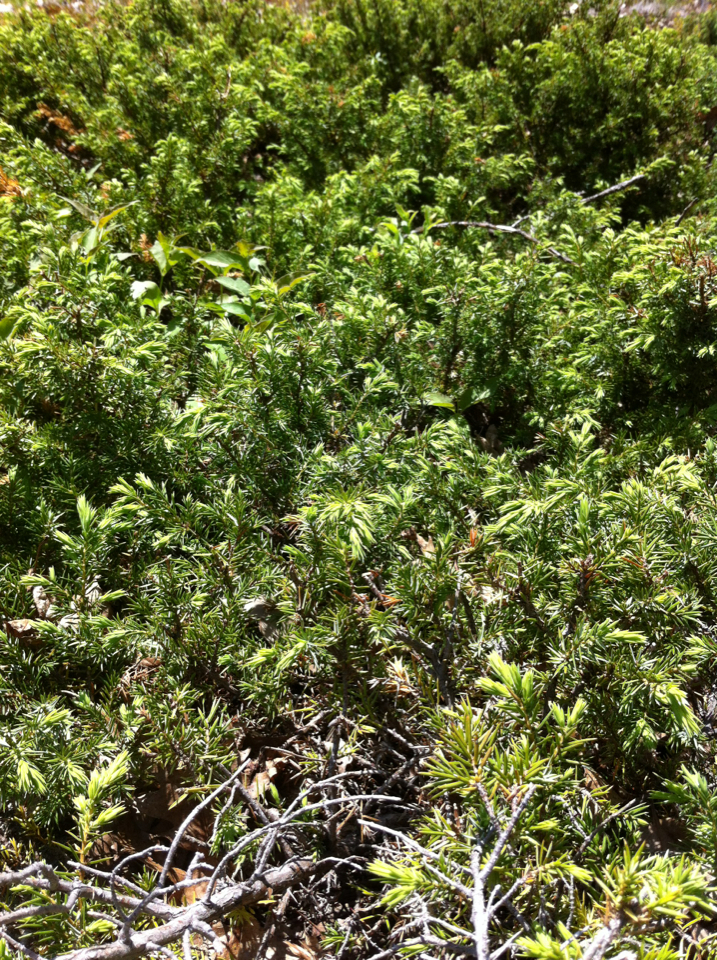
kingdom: Plantae
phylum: Tracheophyta
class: Pinopsida
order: Pinales
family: Cupressaceae
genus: Juniperus
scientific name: Juniperus communis
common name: Common juniper
